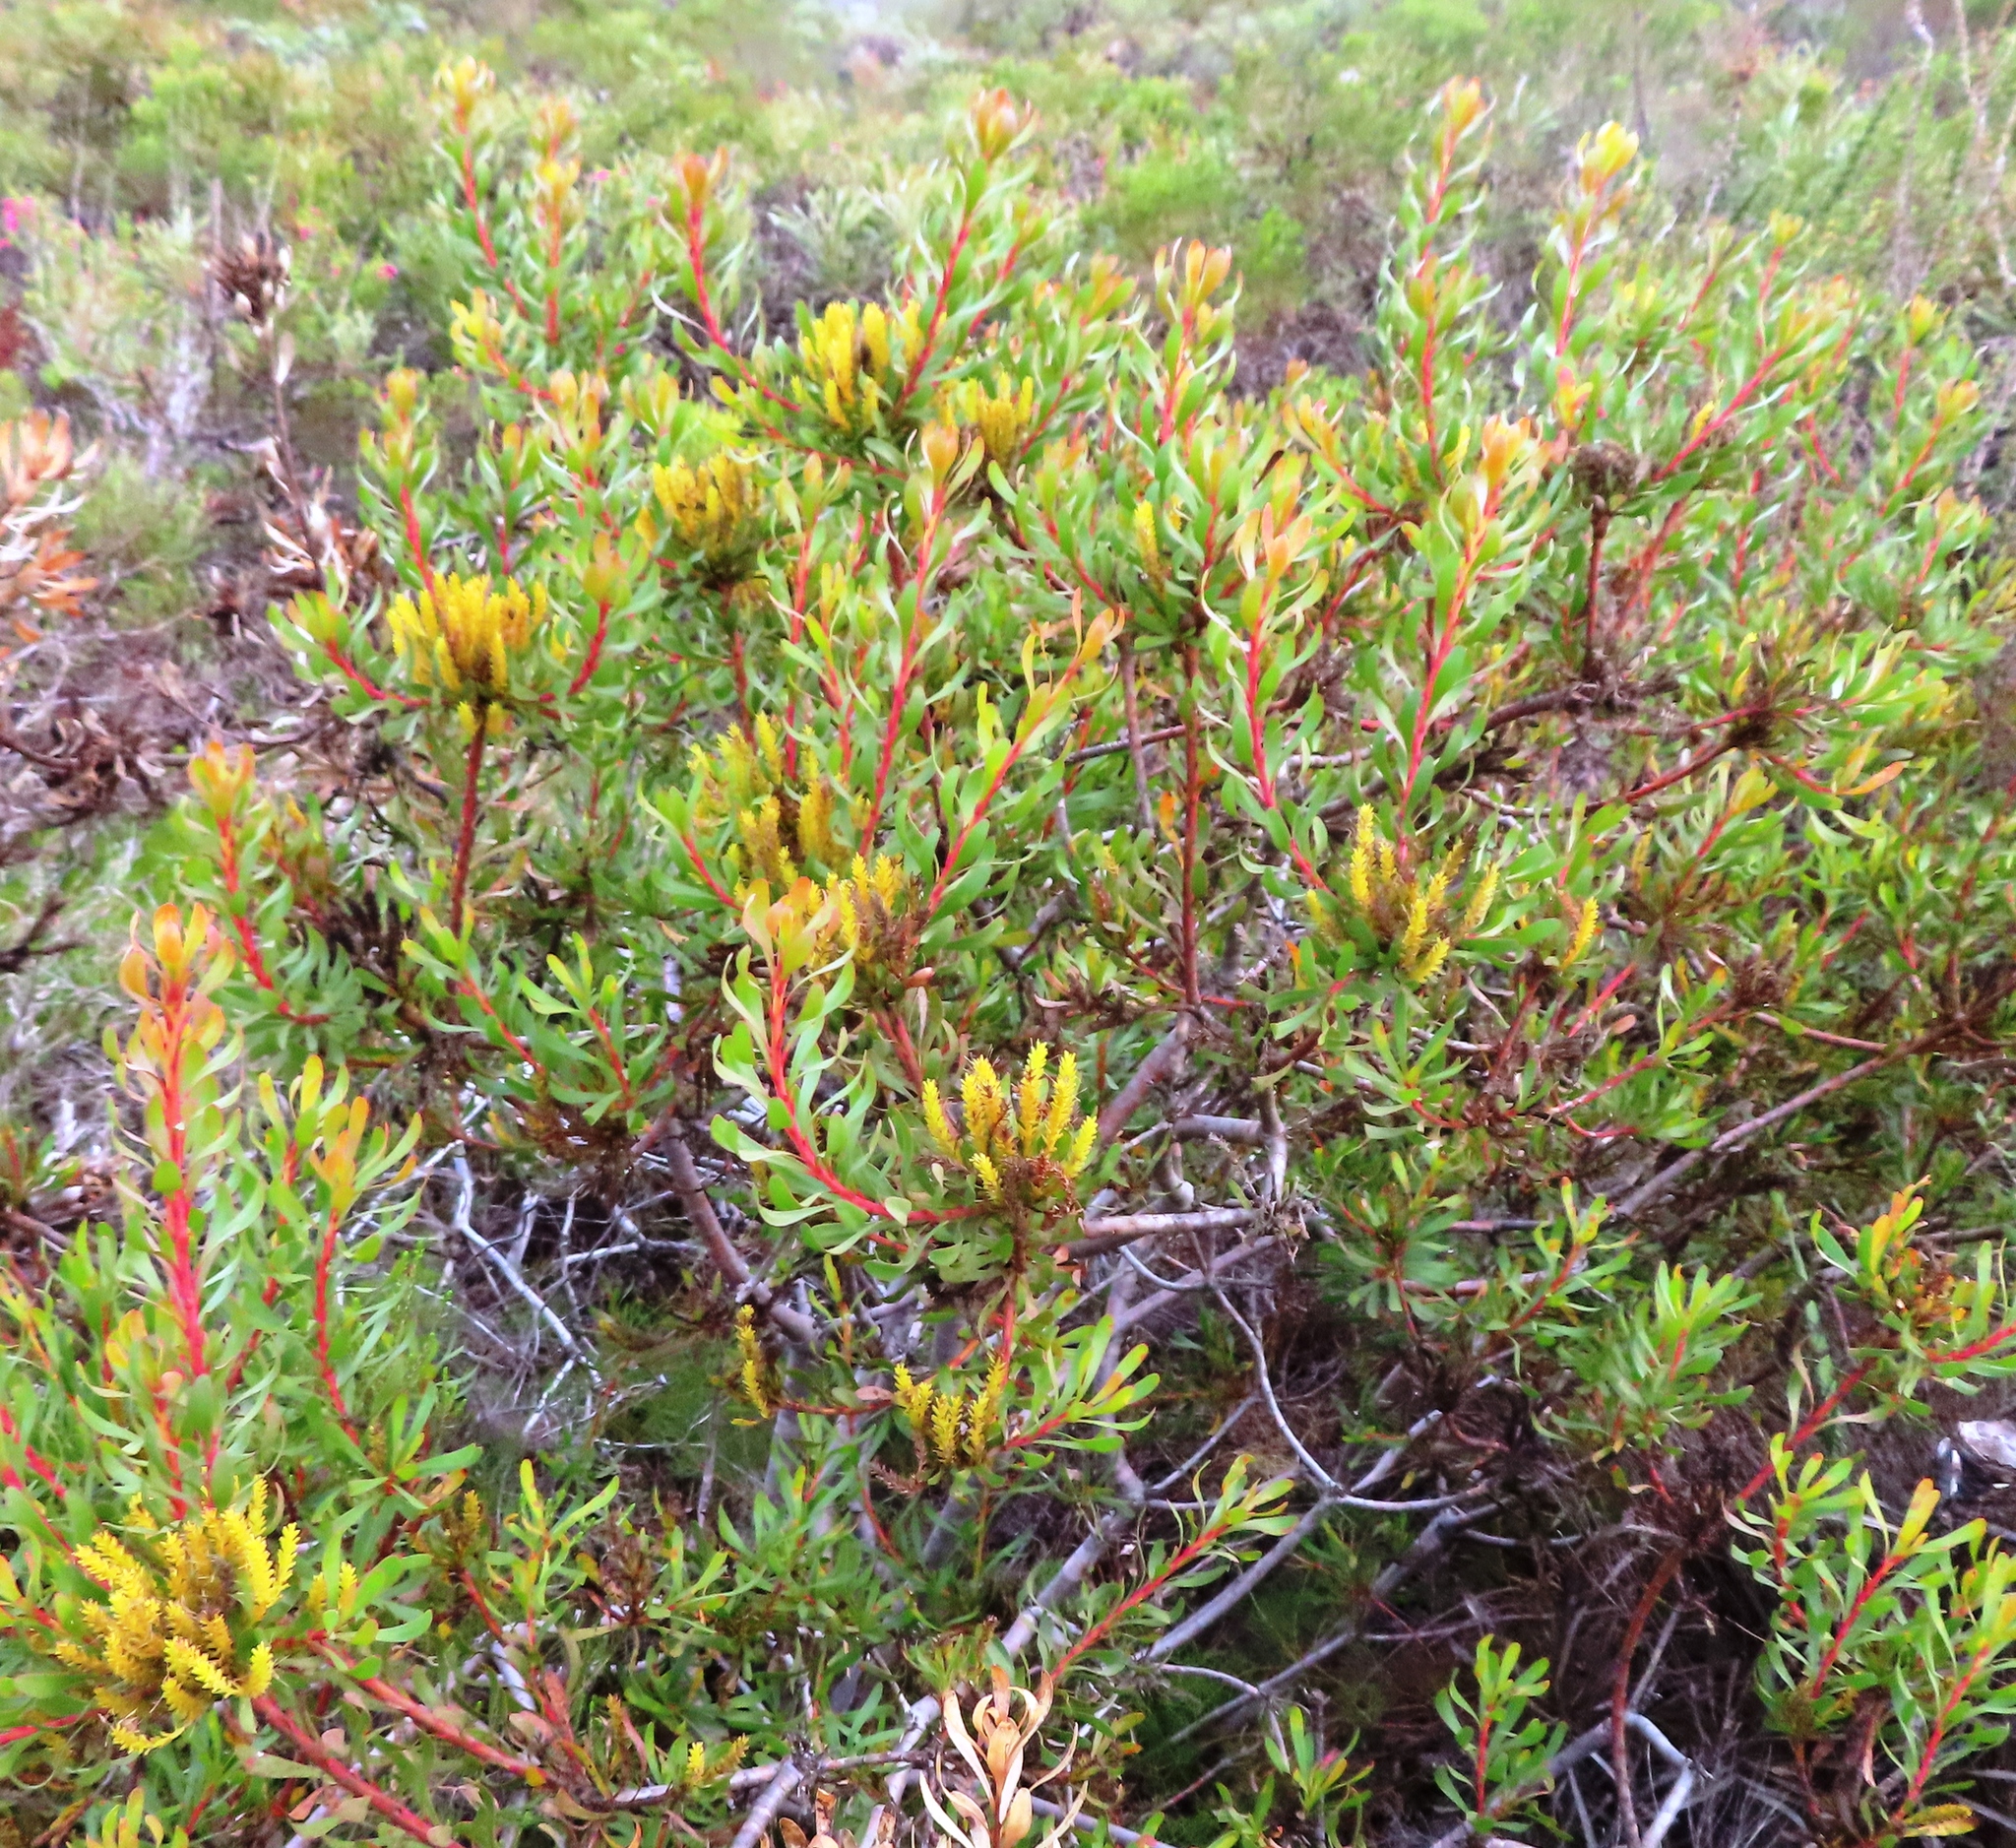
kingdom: Plantae
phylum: Tracheophyta
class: Magnoliopsida
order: Proteales
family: Proteaceae
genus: Aulax
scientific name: Aulax umbellata
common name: Broad-leaf featherbush
